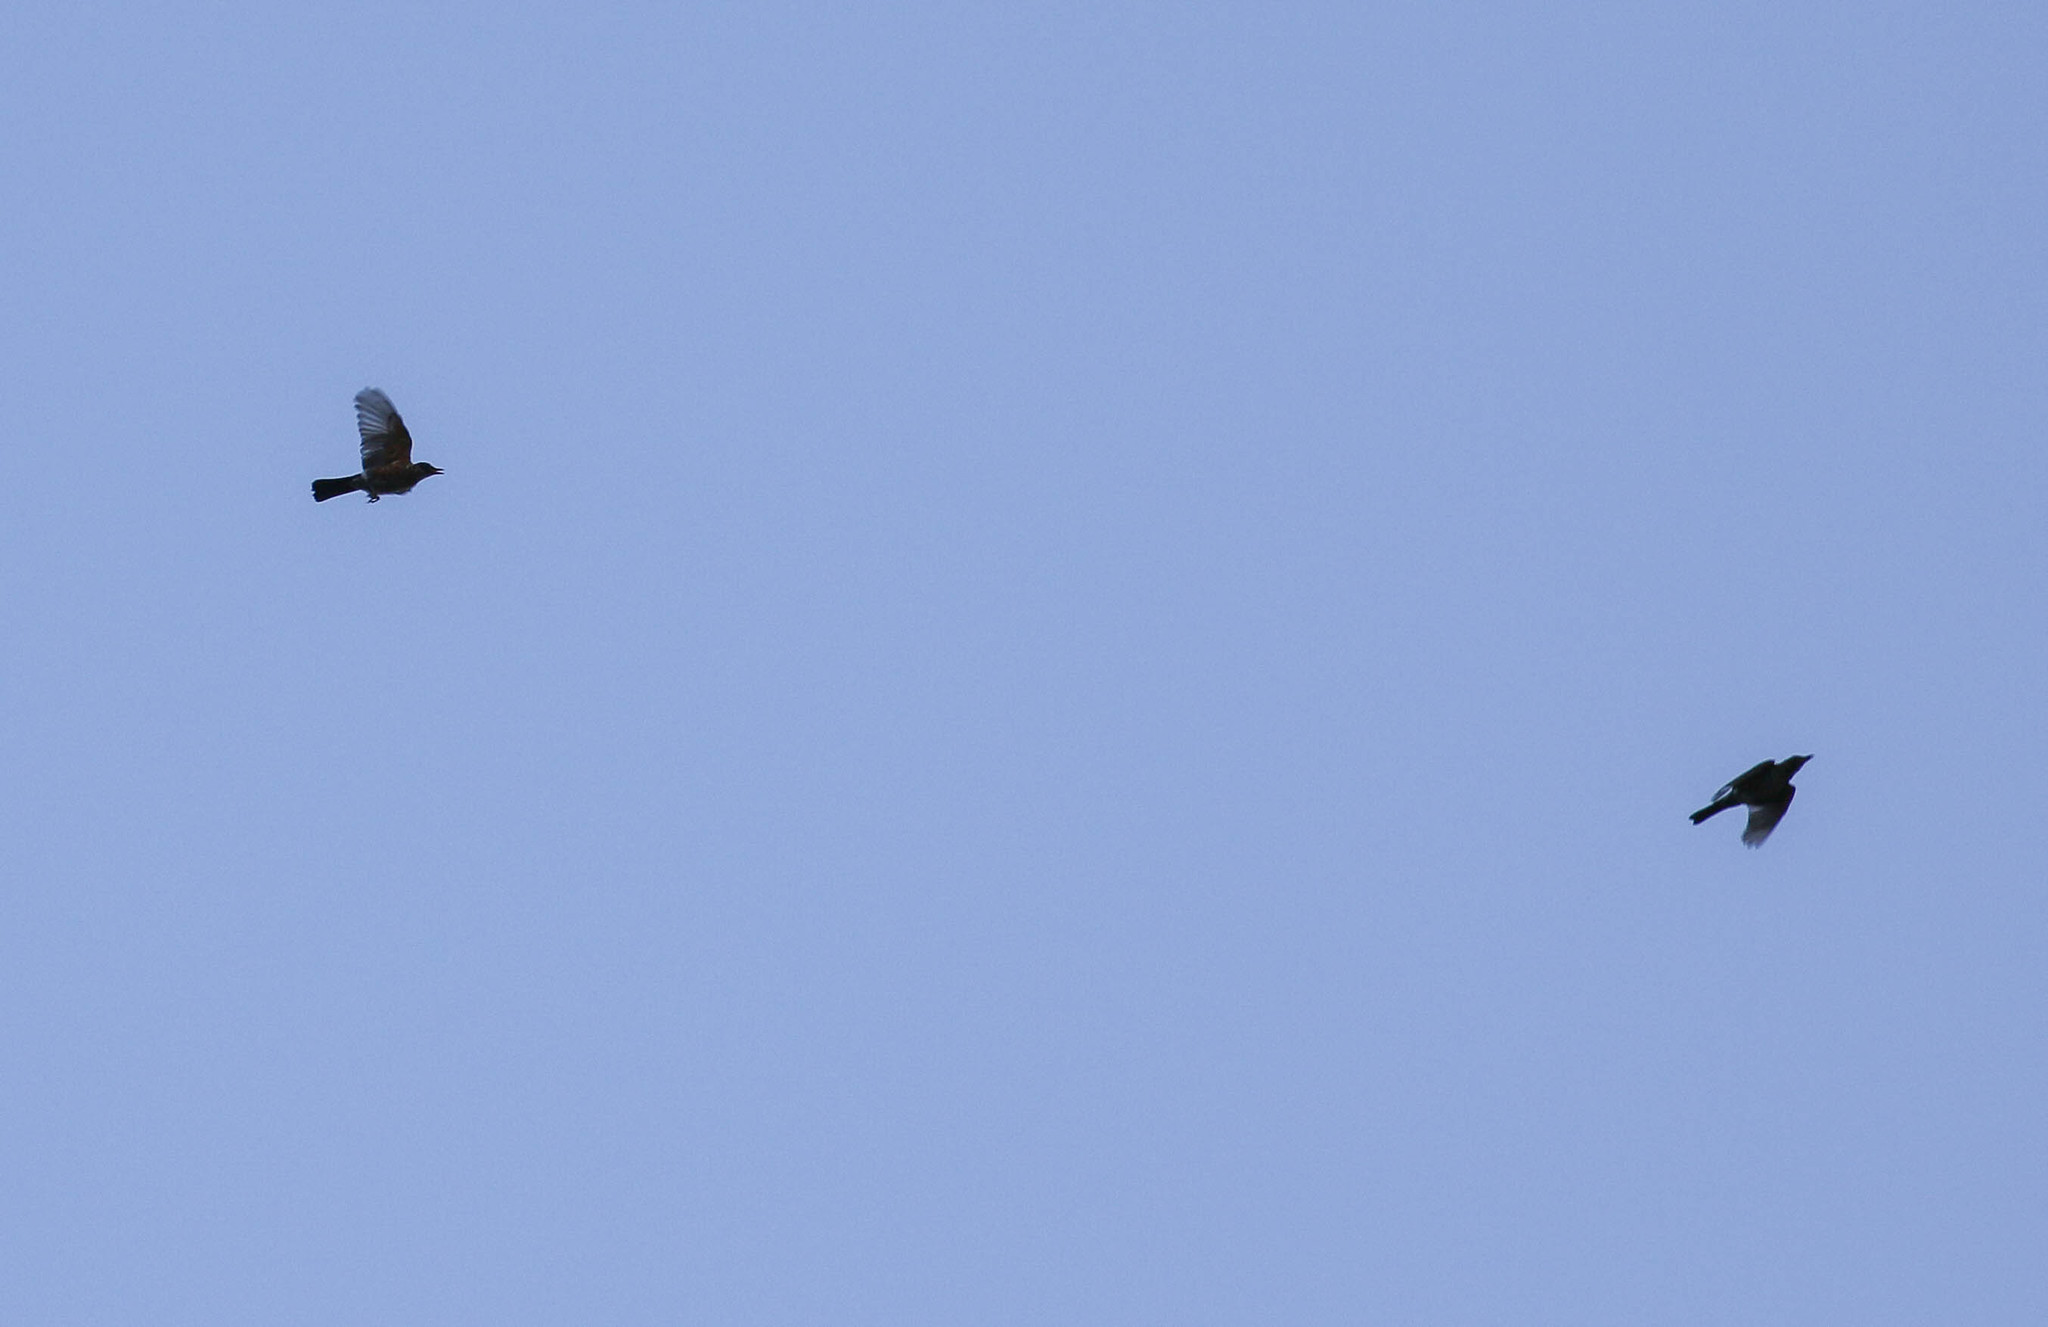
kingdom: Animalia
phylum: Chordata
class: Aves
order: Passeriformes
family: Turdidae
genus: Turdus
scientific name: Turdus migratorius
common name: American robin
